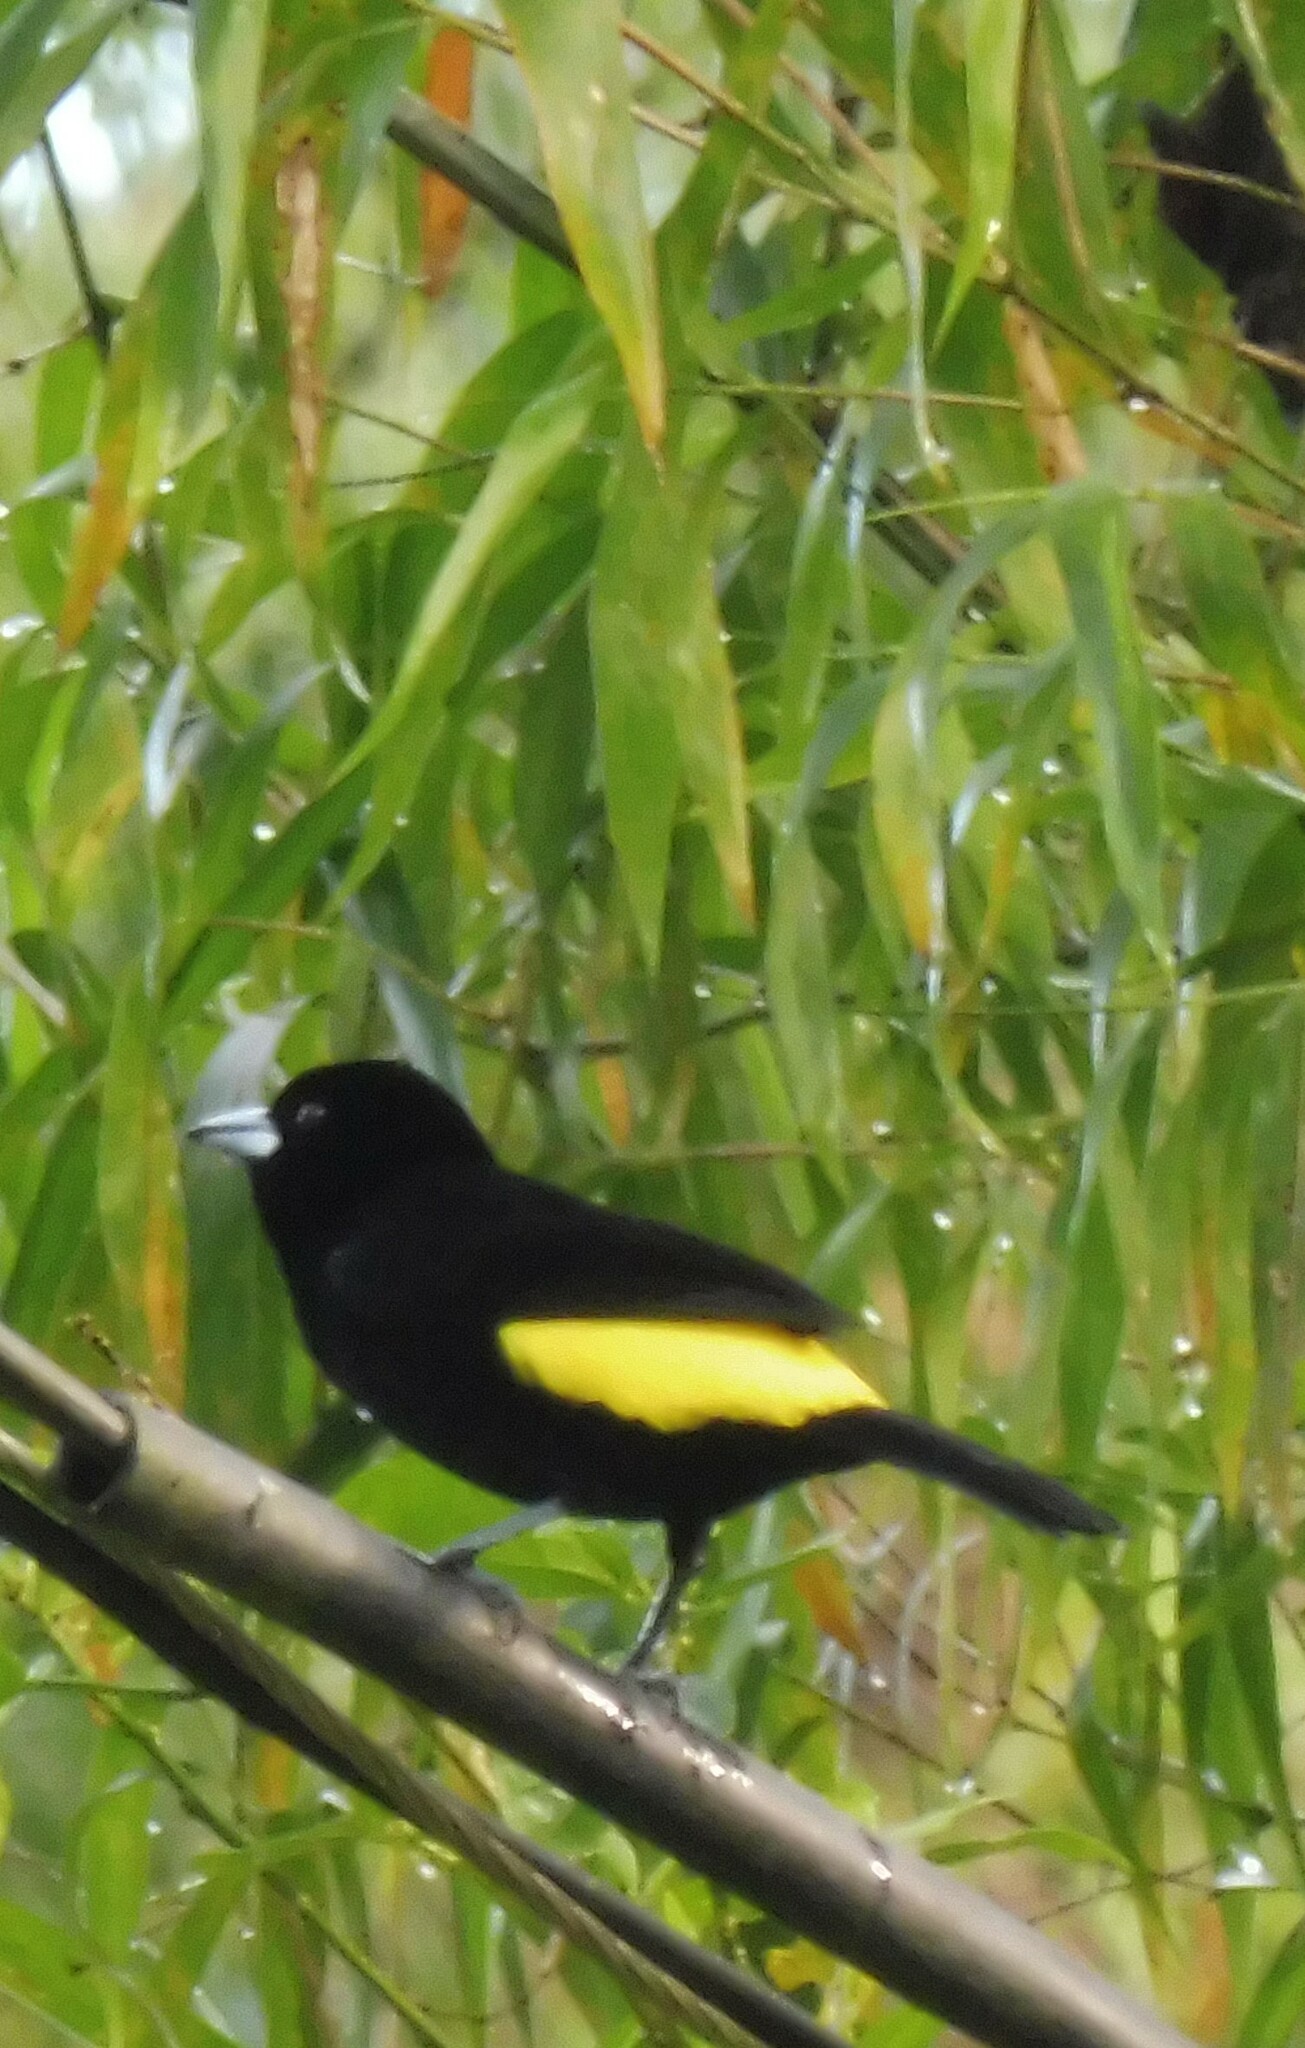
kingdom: Animalia
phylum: Chordata
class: Aves
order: Passeriformes
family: Thraupidae
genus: Ramphocelus
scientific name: Ramphocelus flammigerus
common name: Flame-rumped tanager
